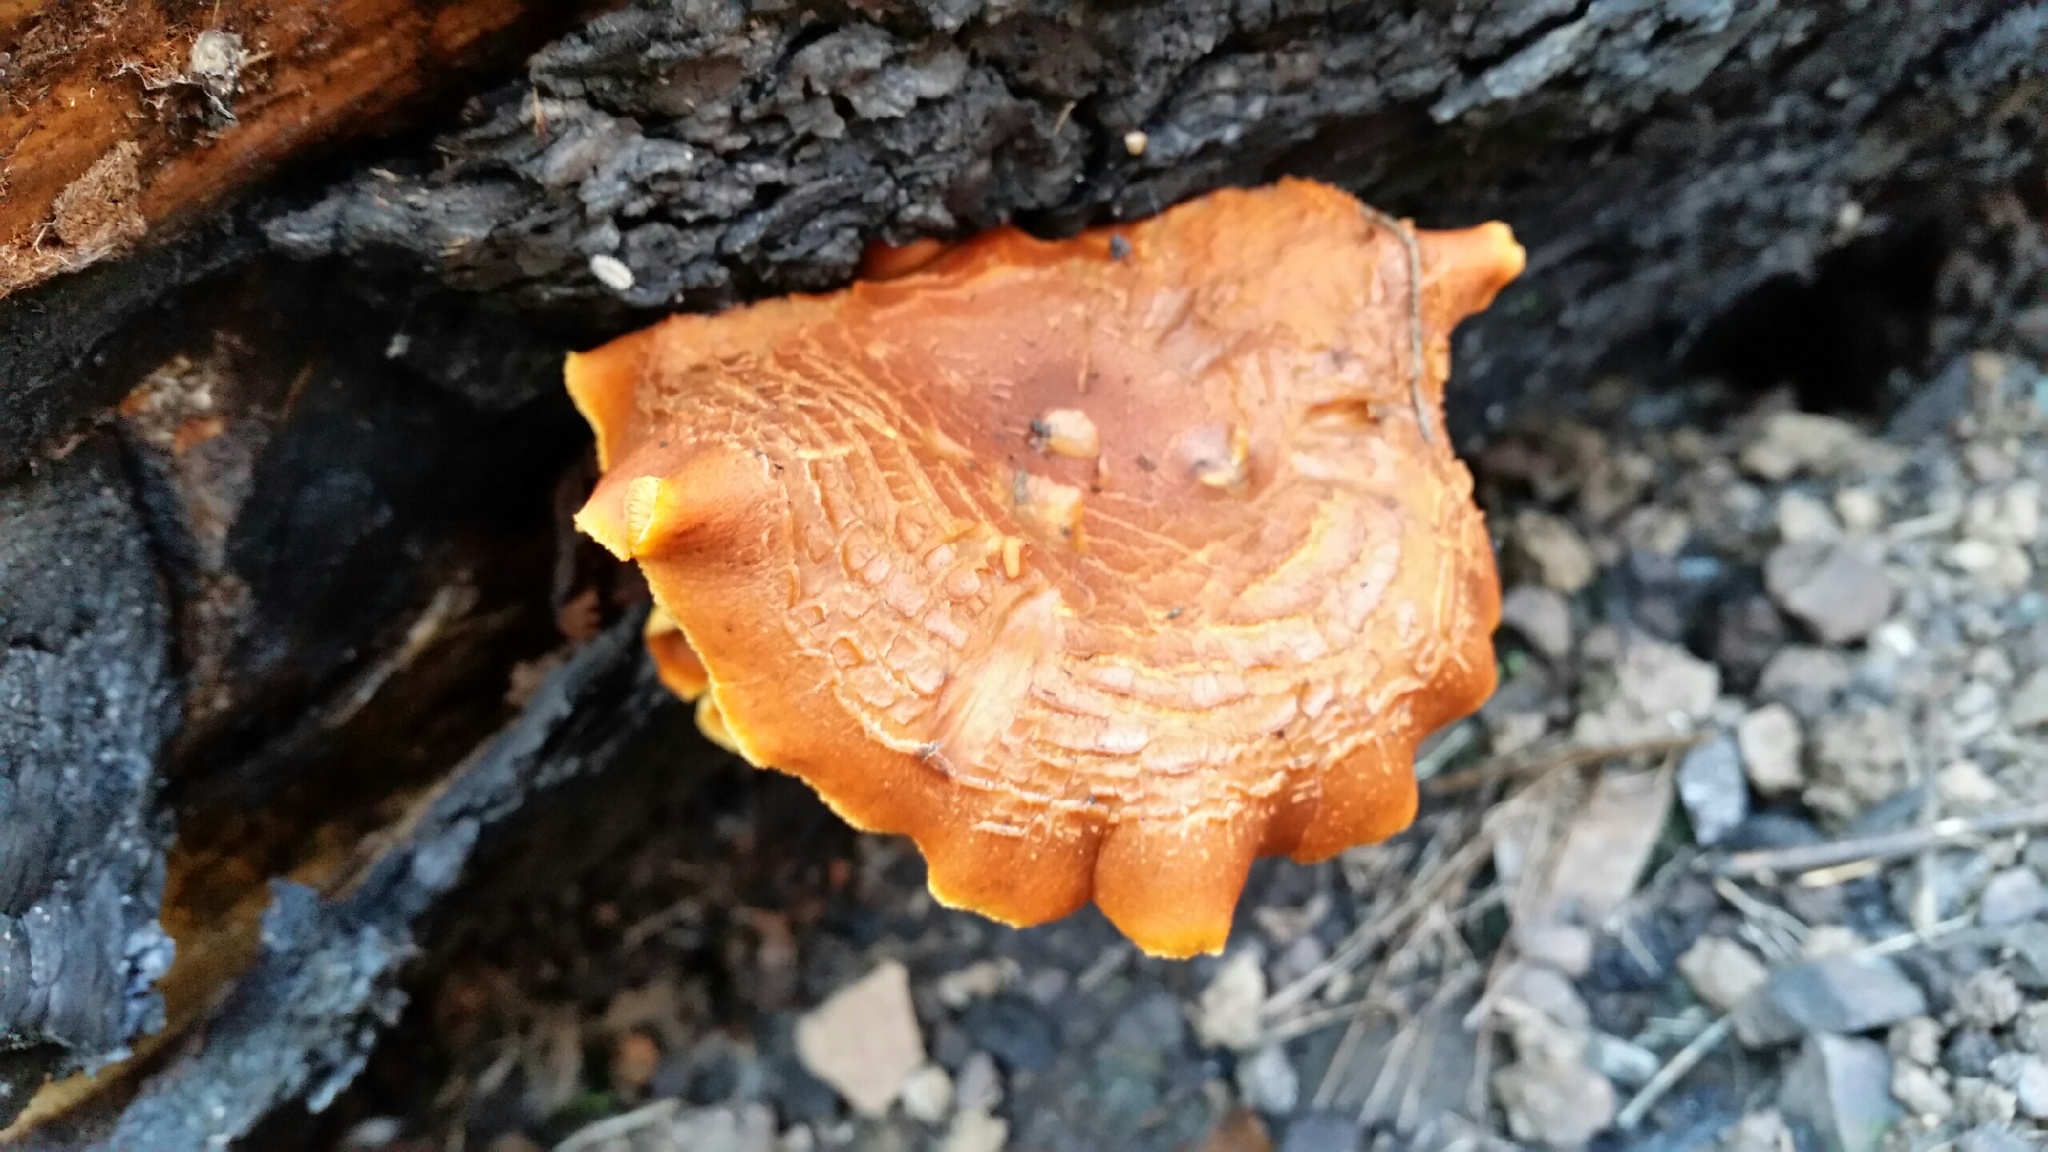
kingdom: Fungi
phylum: Basidiomycota
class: Agaricomycetes
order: Agaricales
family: Hymenogastraceae
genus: Gymnopilus
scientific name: Gymnopilus aurantiophyllus
